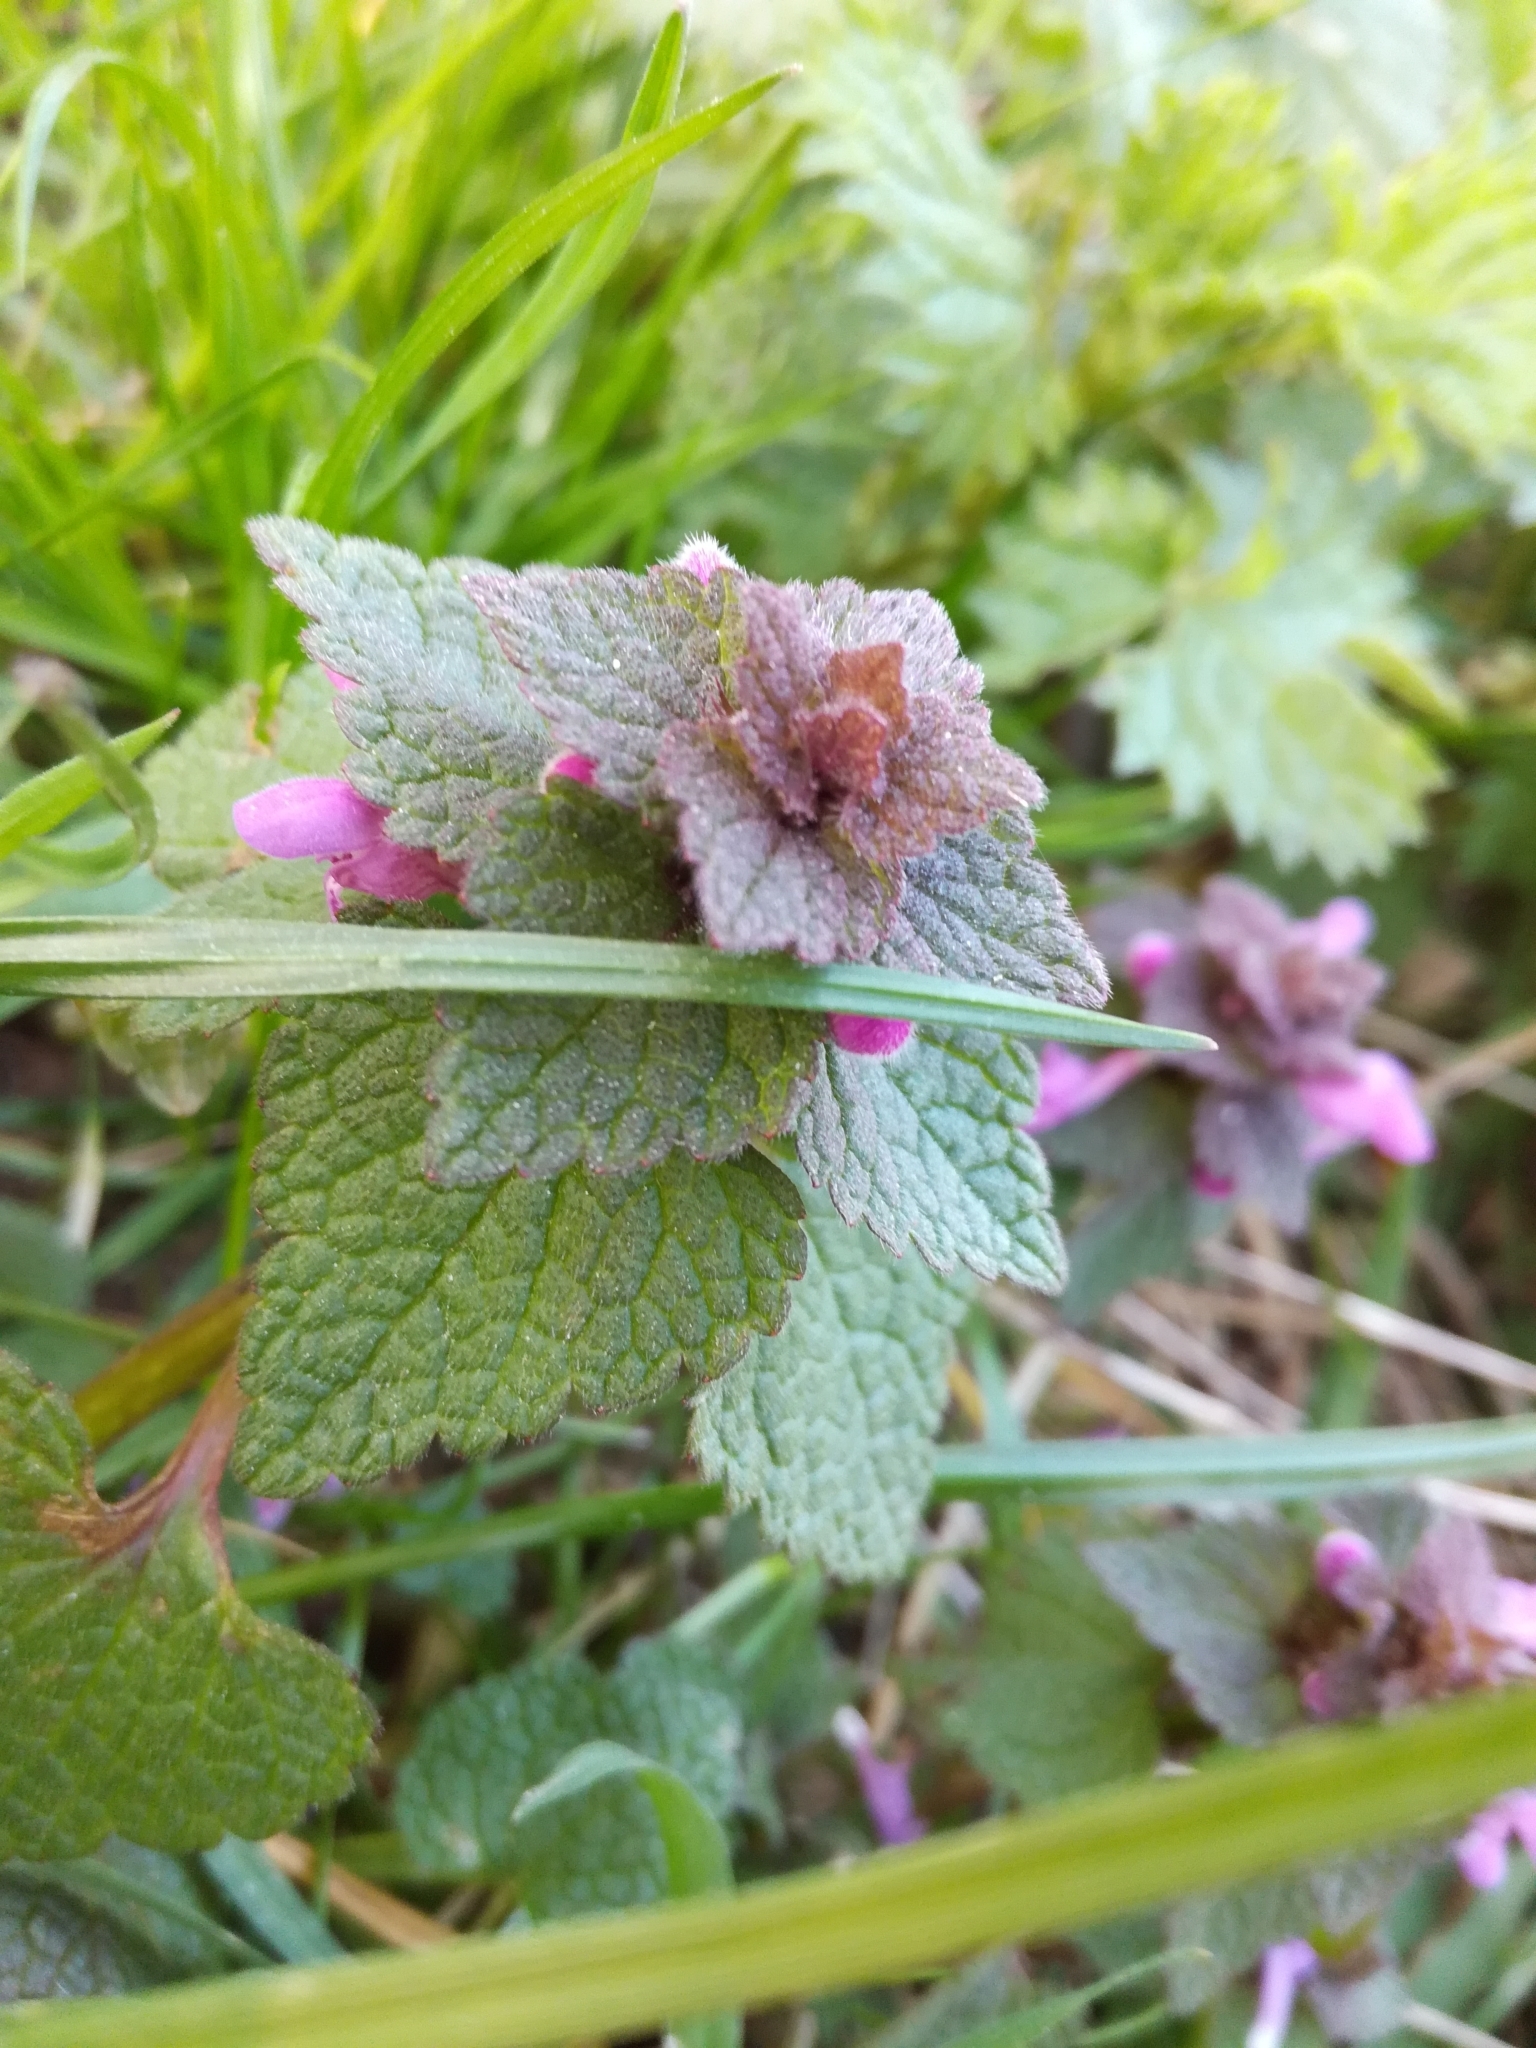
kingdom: Plantae
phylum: Tracheophyta
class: Magnoliopsida
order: Lamiales
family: Lamiaceae
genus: Lamium
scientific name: Lamium purpureum
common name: Red dead-nettle
